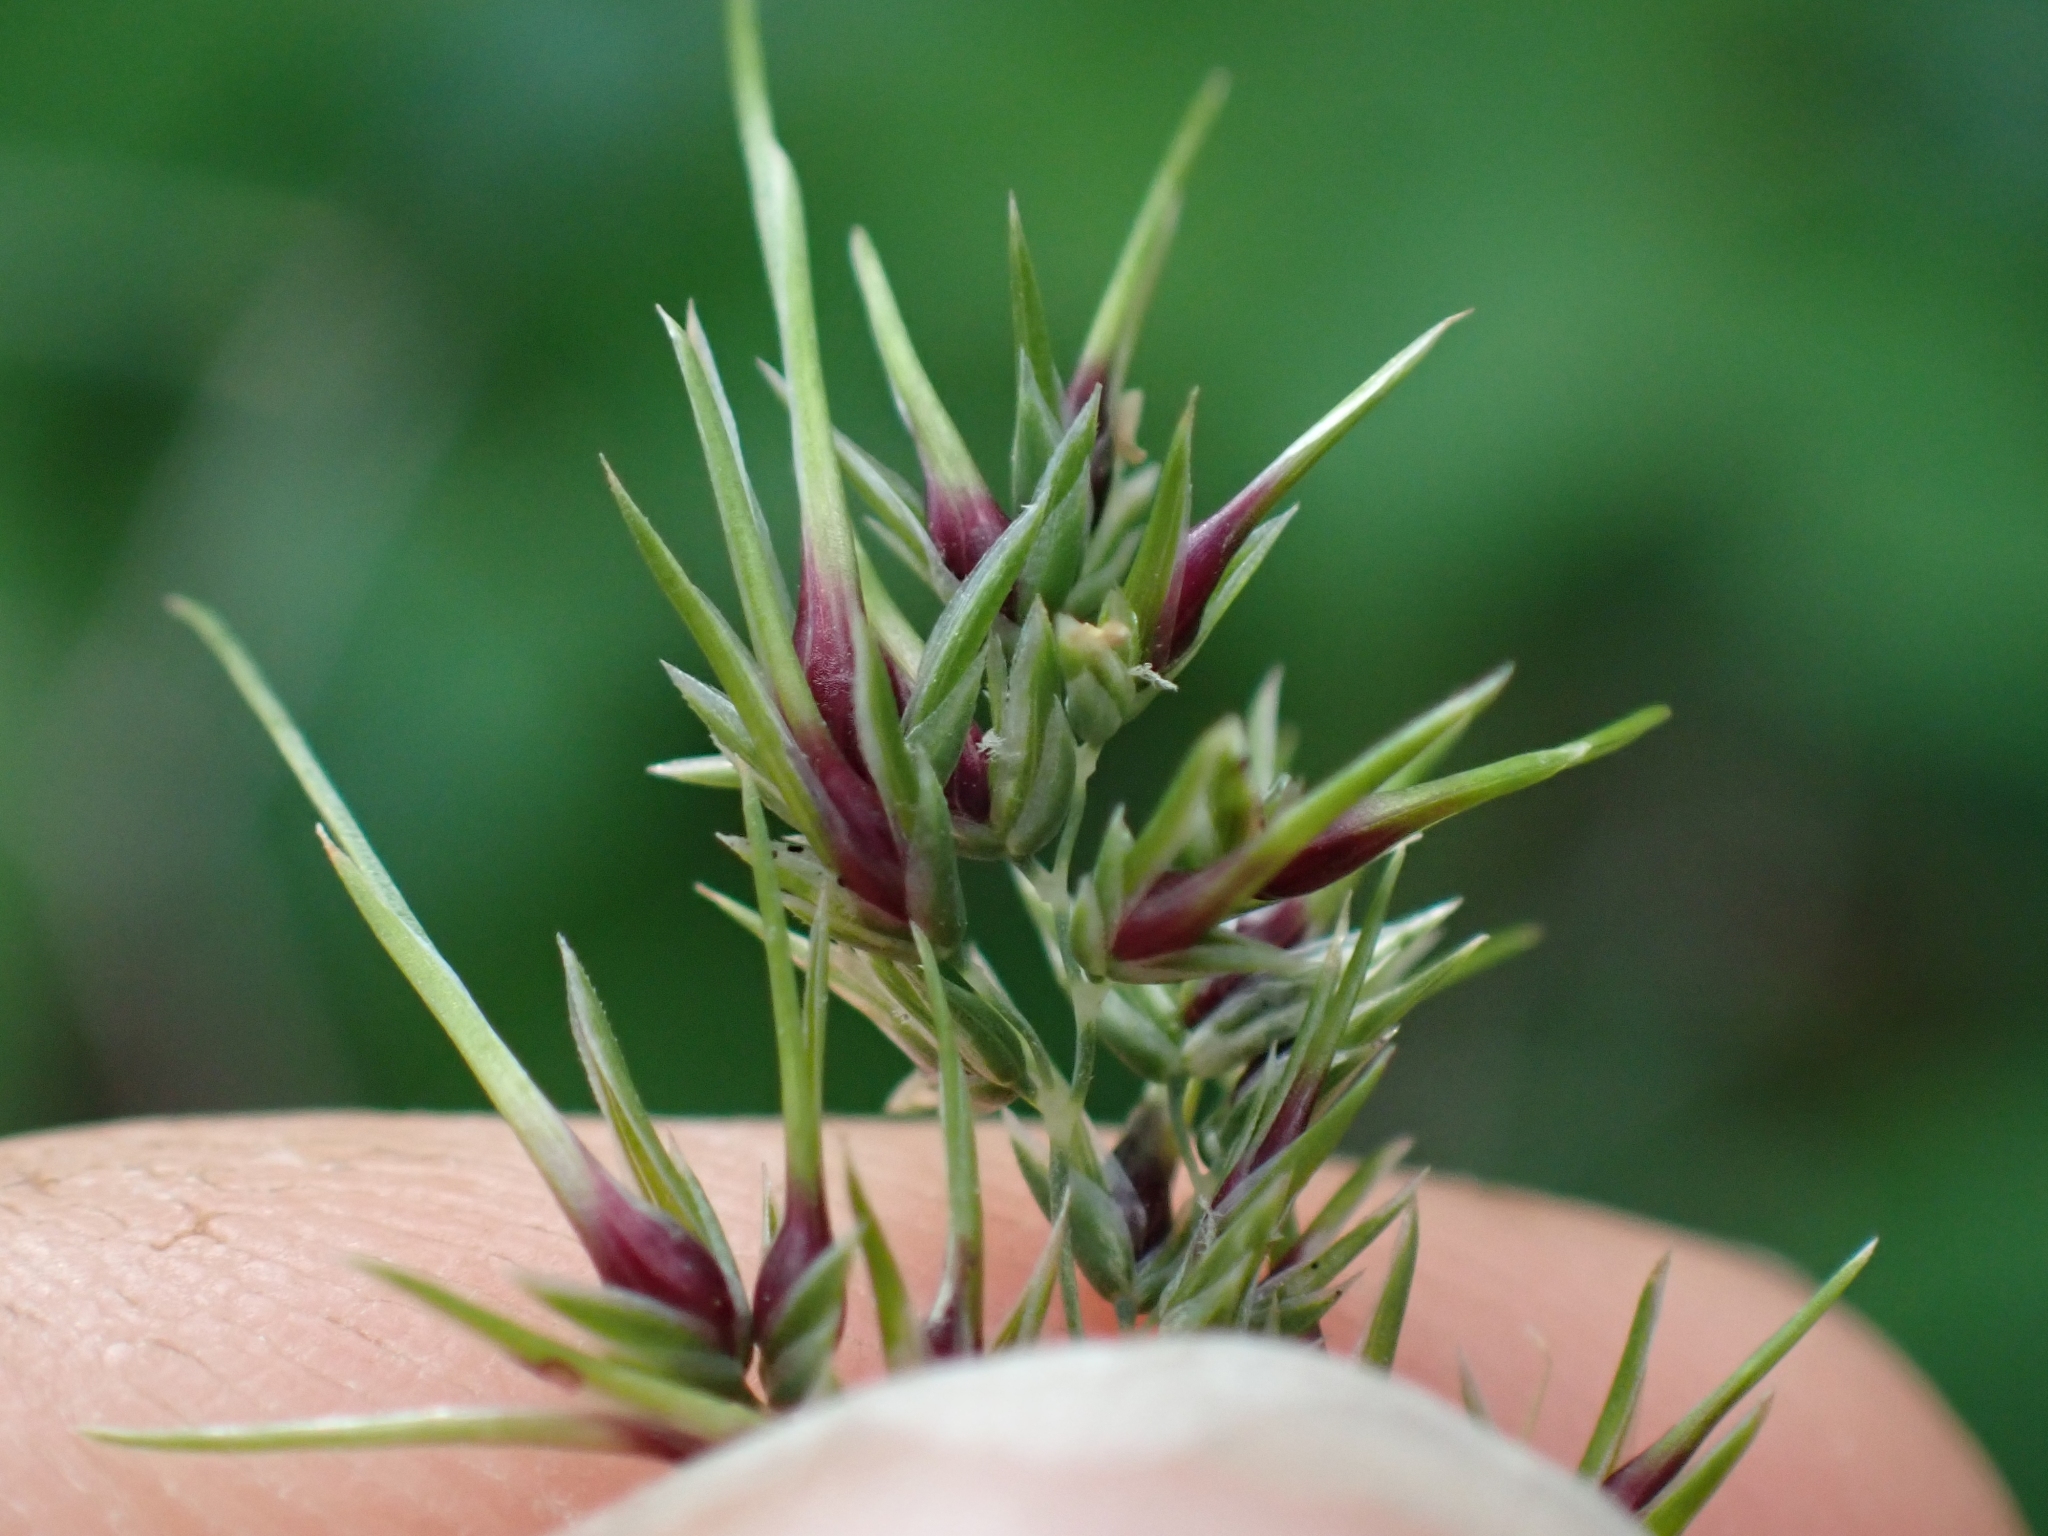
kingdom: Plantae
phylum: Tracheophyta
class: Liliopsida
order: Poales
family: Poaceae
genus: Poa
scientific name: Poa bulbosa
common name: Bulbous bluegrass
